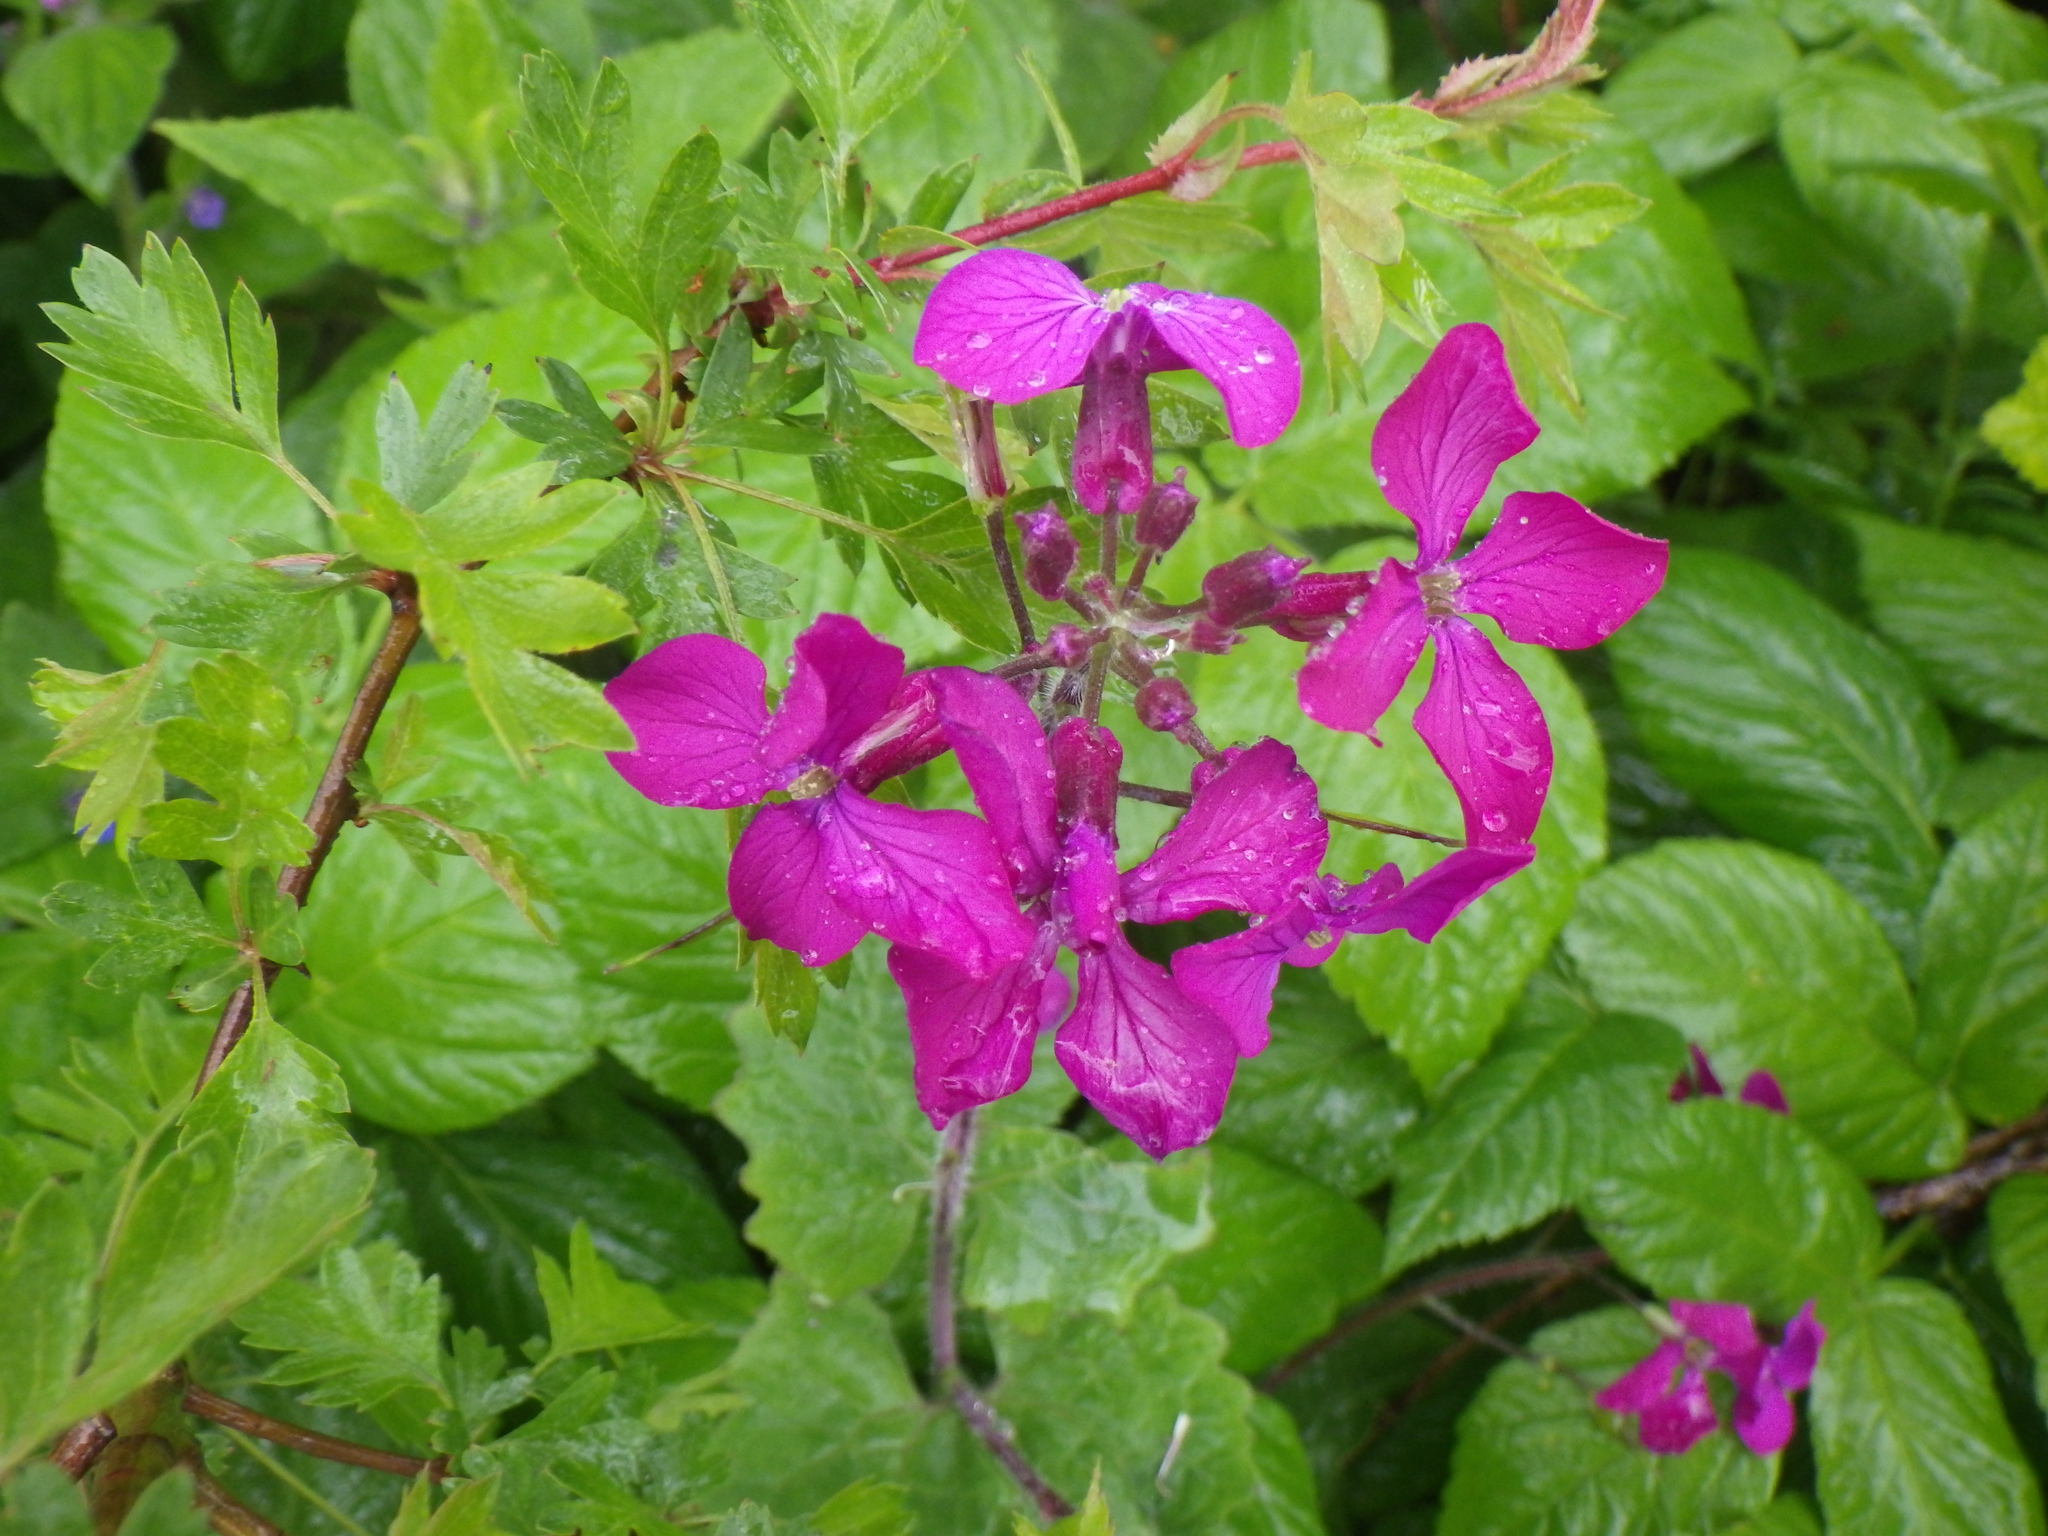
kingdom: Plantae
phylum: Tracheophyta
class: Magnoliopsida
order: Brassicales
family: Brassicaceae
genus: Lunaria
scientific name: Lunaria annua
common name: Honesty
